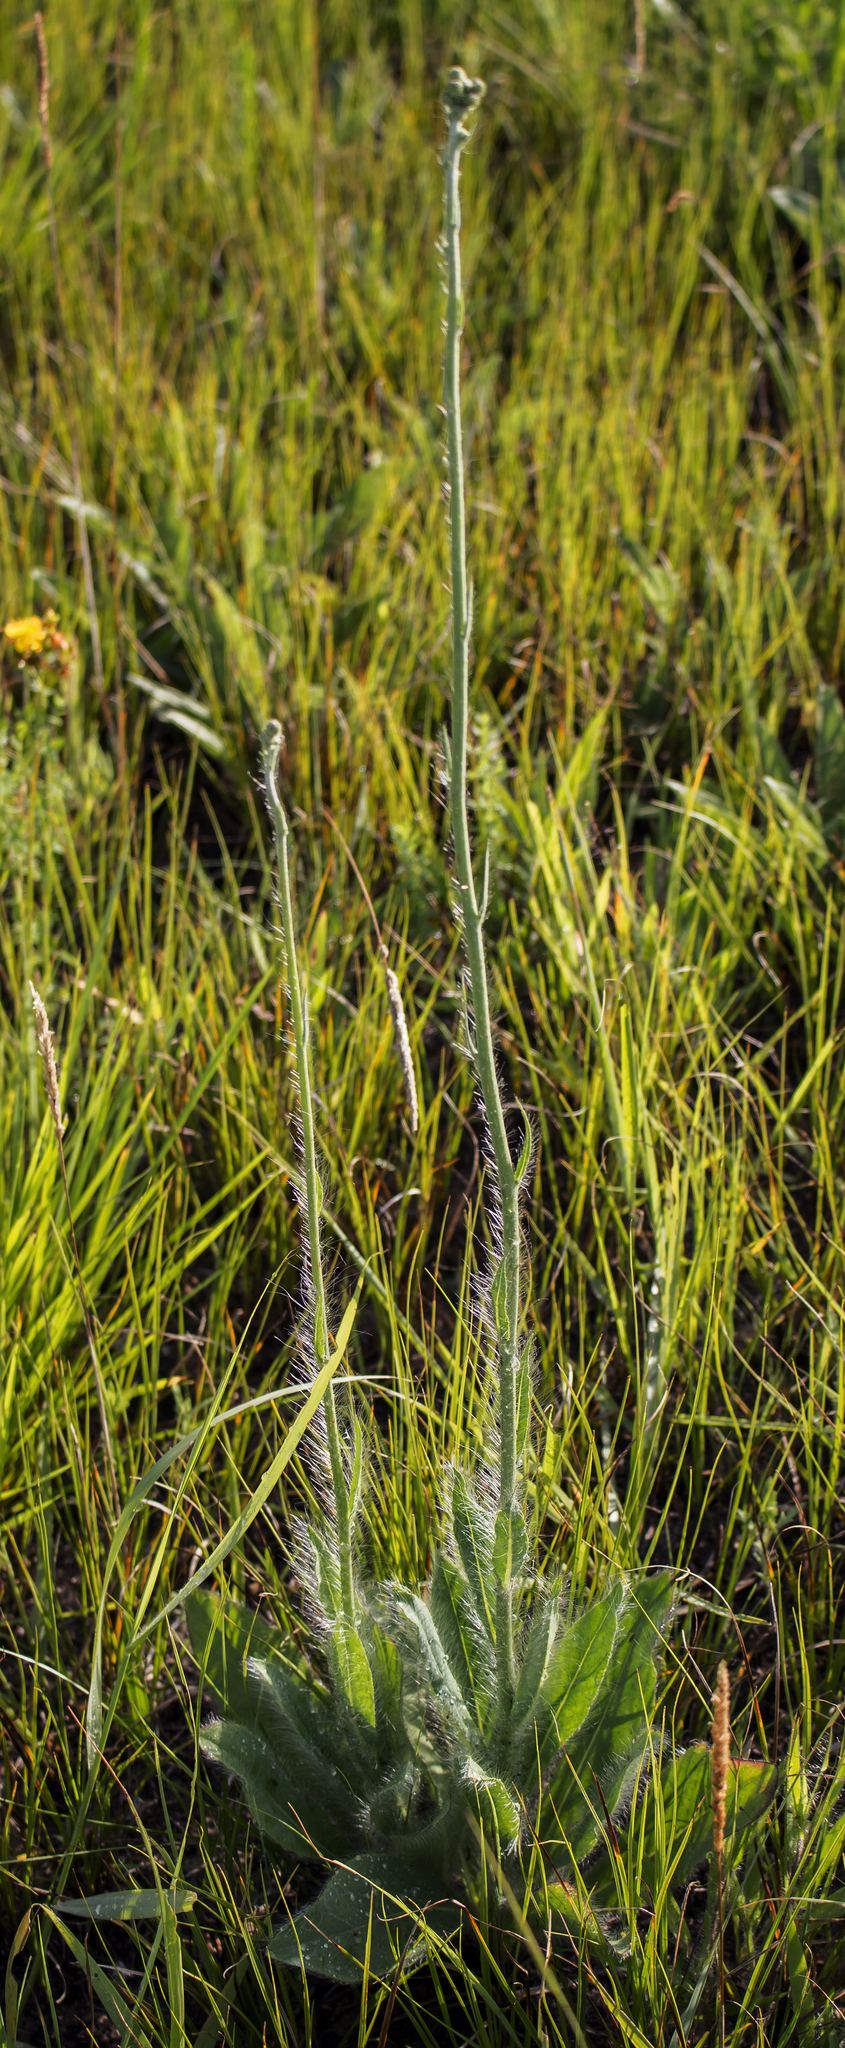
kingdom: Plantae
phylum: Tracheophyta
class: Magnoliopsida
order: Asterales
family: Asteraceae
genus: Hieracium
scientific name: Hieracium longipilum
